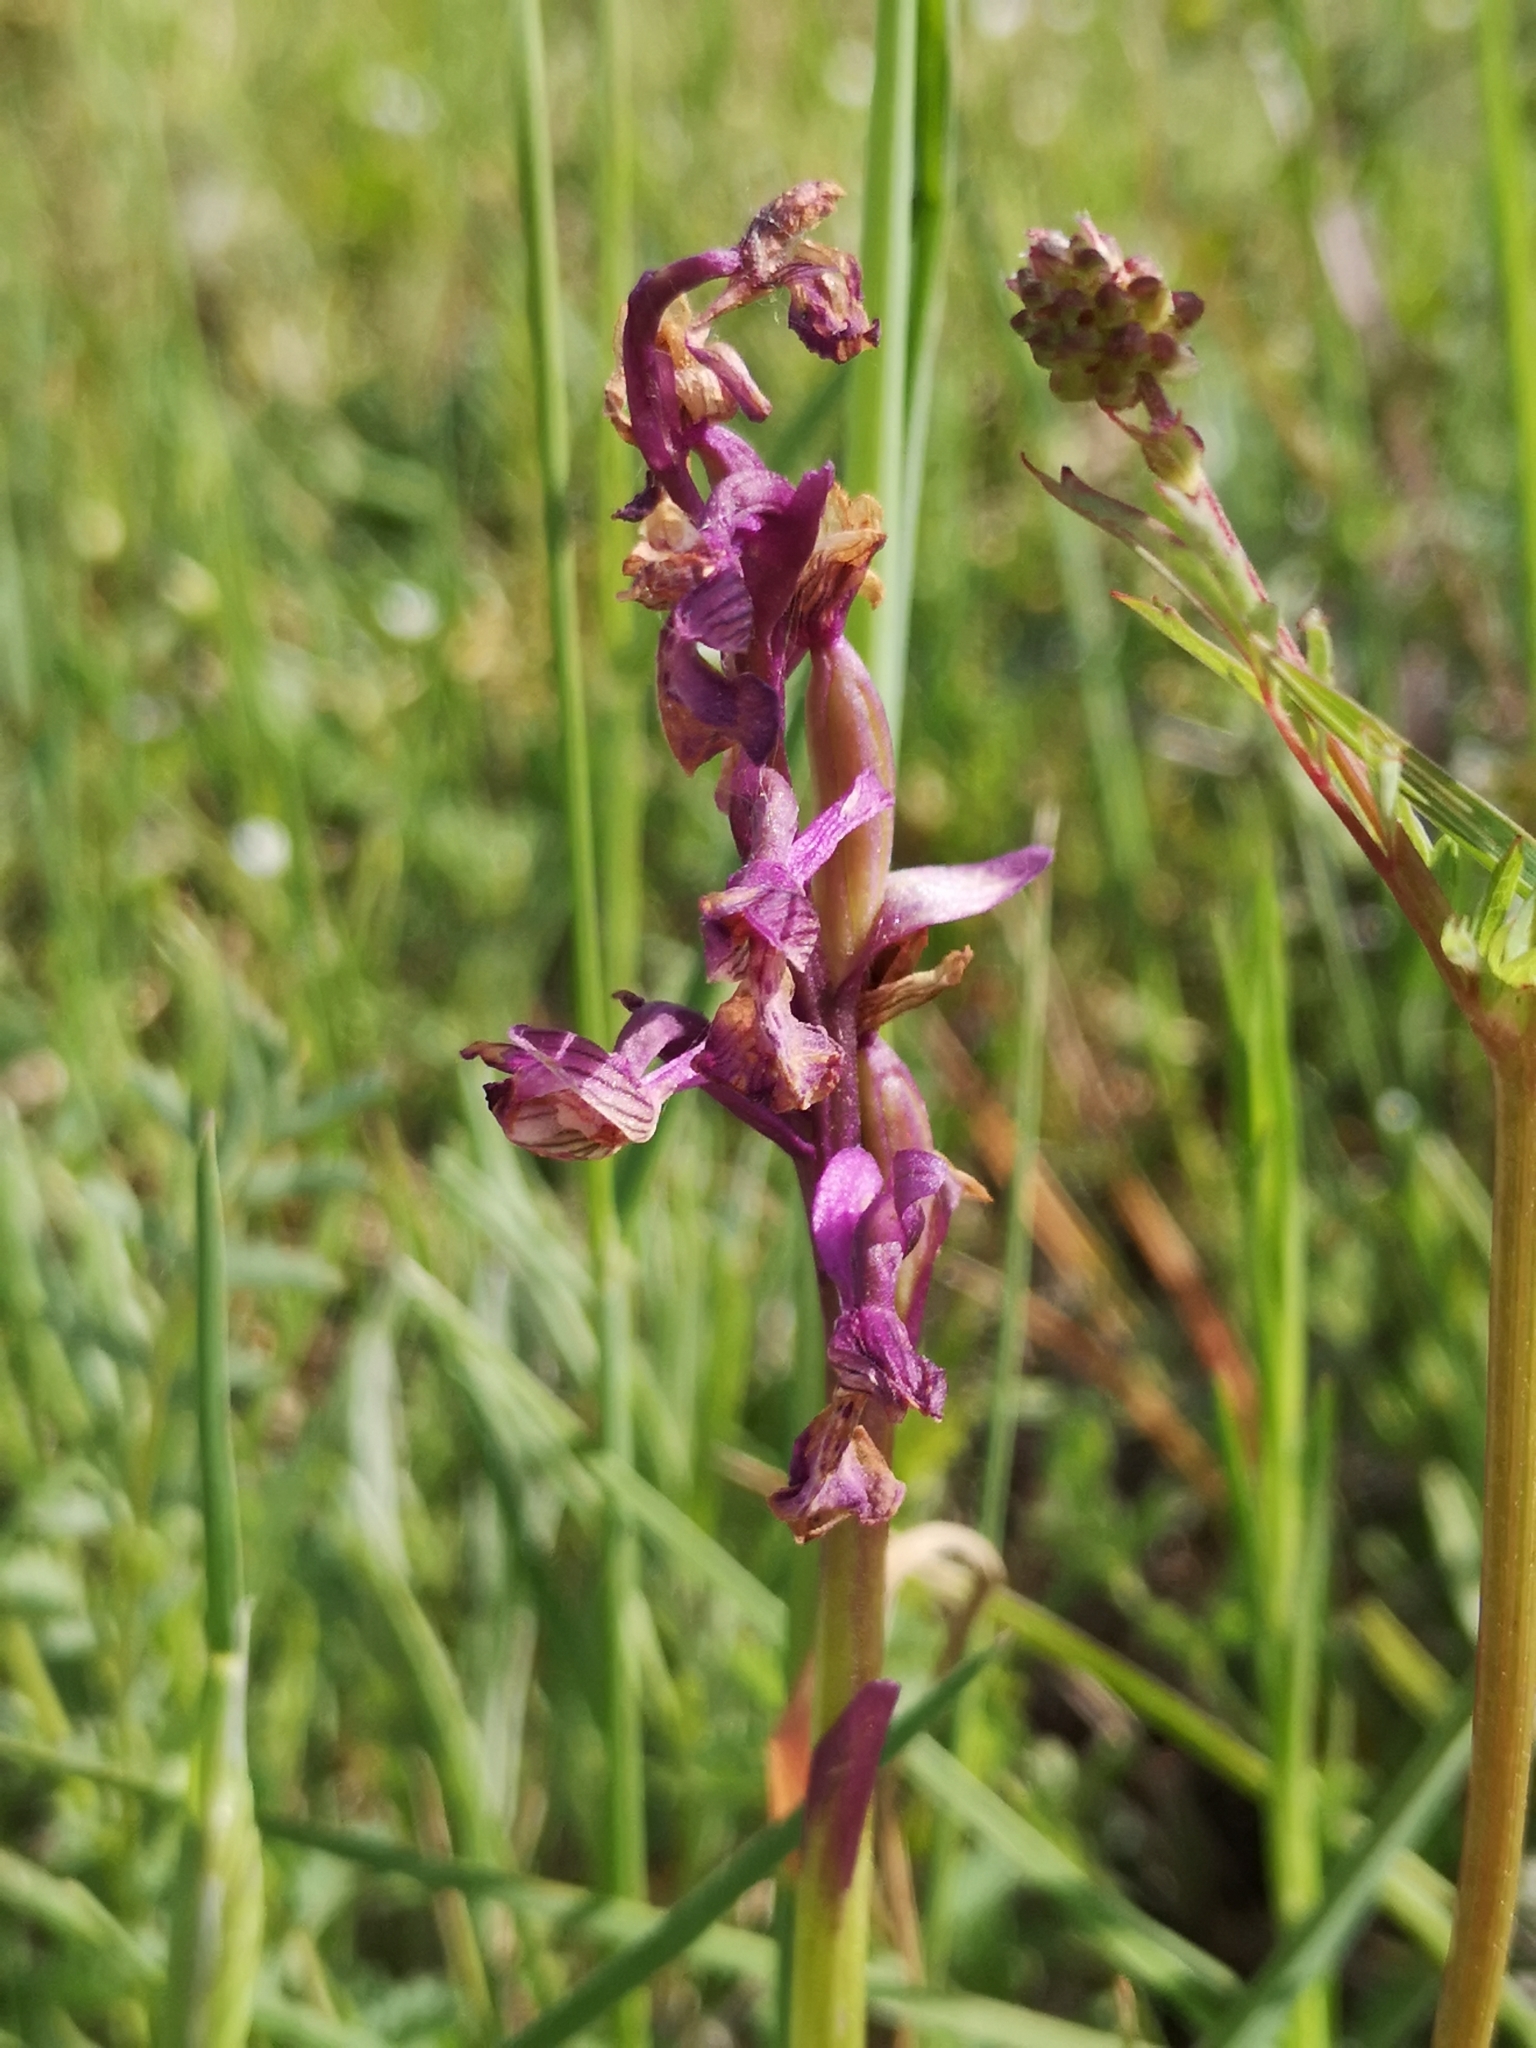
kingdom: Plantae
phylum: Tracheophyta
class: Liliopsida
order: Asparagales
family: Orchidaceae
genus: Anacamptis
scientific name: Anacamptis morio
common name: Green-winged orchid
